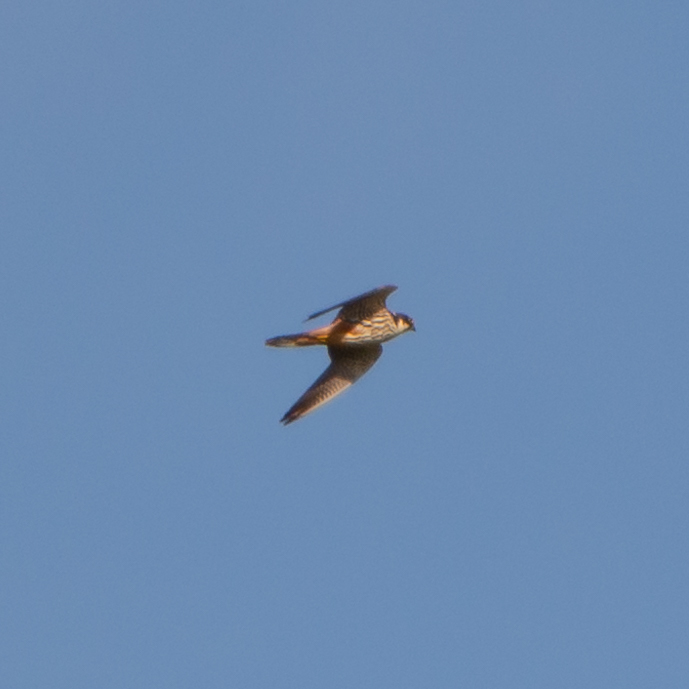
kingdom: Animalia
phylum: Chordata
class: Aves
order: Falconiformes
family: Falconidae
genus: Falco
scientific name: Falco subbuteo
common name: Eurasian hobby
